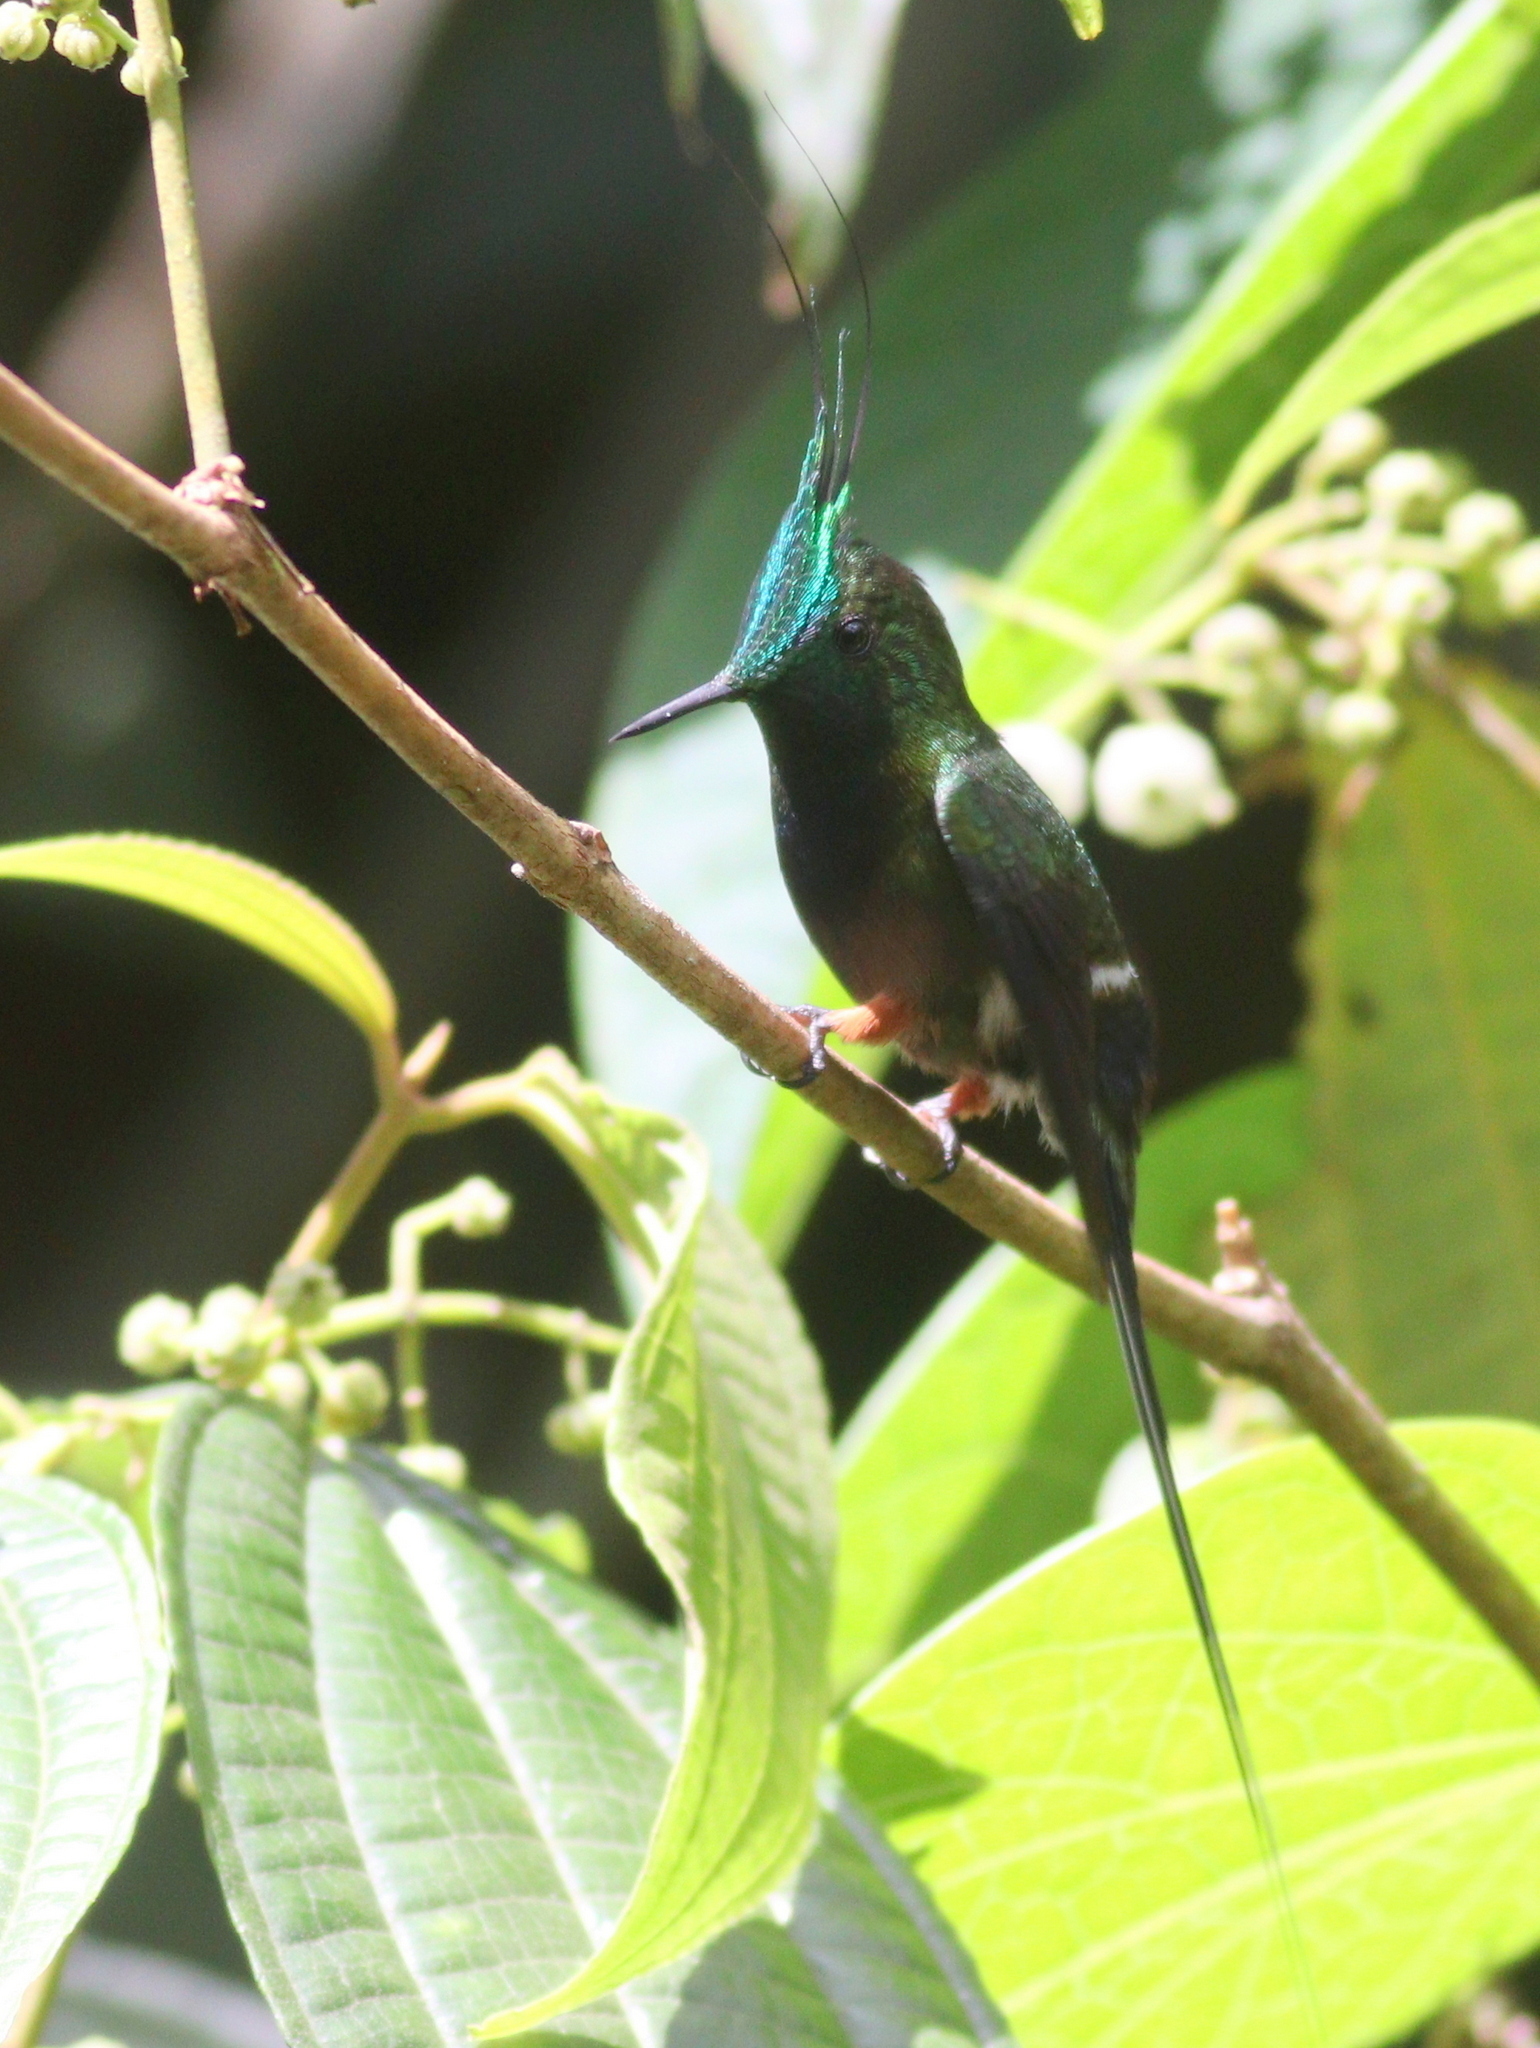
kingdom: Animalia
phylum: Chordata
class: Aves
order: Apodiformes
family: Trochilidae
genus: Discosura
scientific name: Discosura popelairii
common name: Wire-crested thorntail
